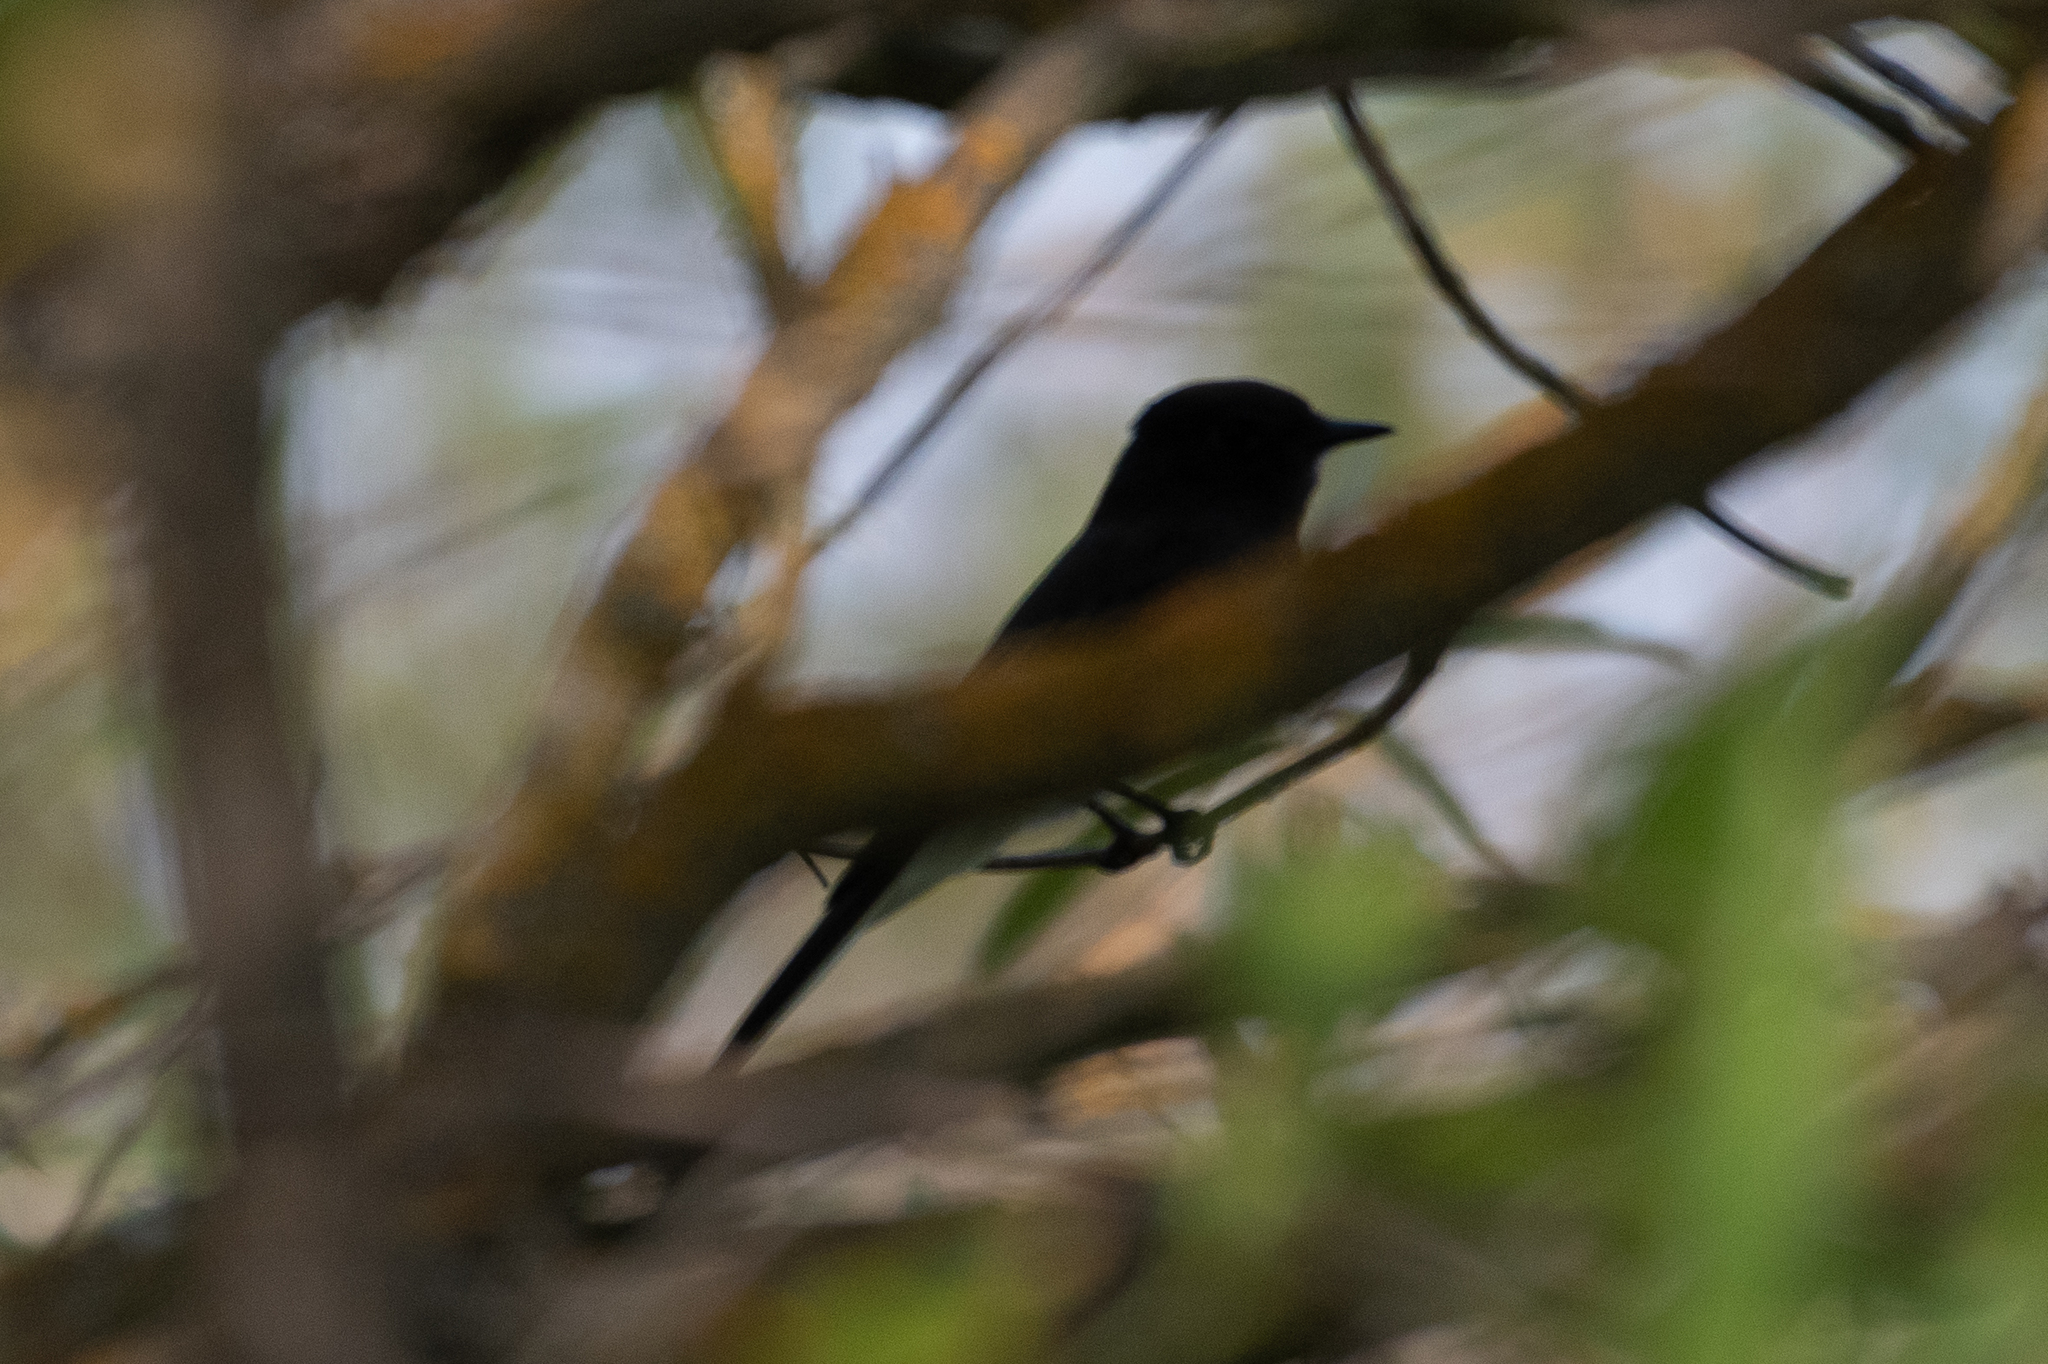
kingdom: Animalia
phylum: Chordata
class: Aves
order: Passeriformes
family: Tyrannidae
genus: Sayornis
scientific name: Sayornis nigricans
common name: Black phoebe
